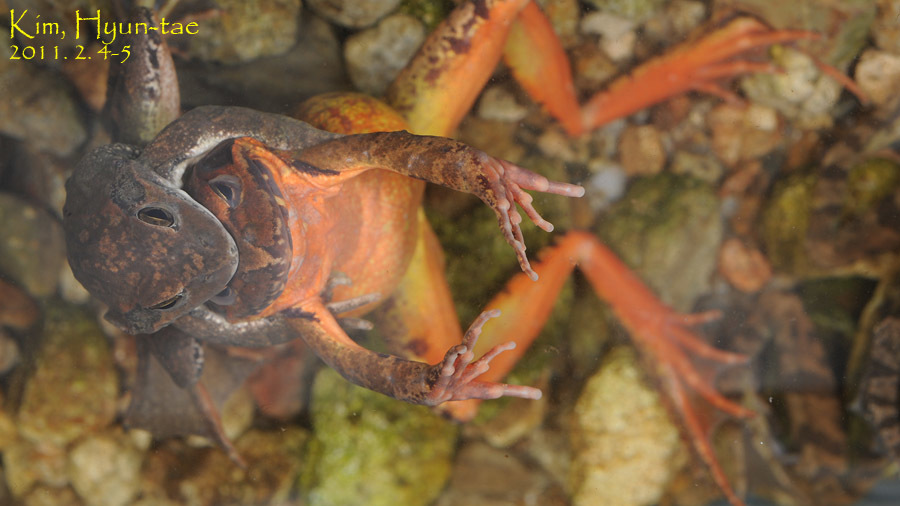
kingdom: Animalia
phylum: Chordata
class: Amphibia
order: Anura
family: Ranidae
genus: Rana
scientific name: Rana uenoi
